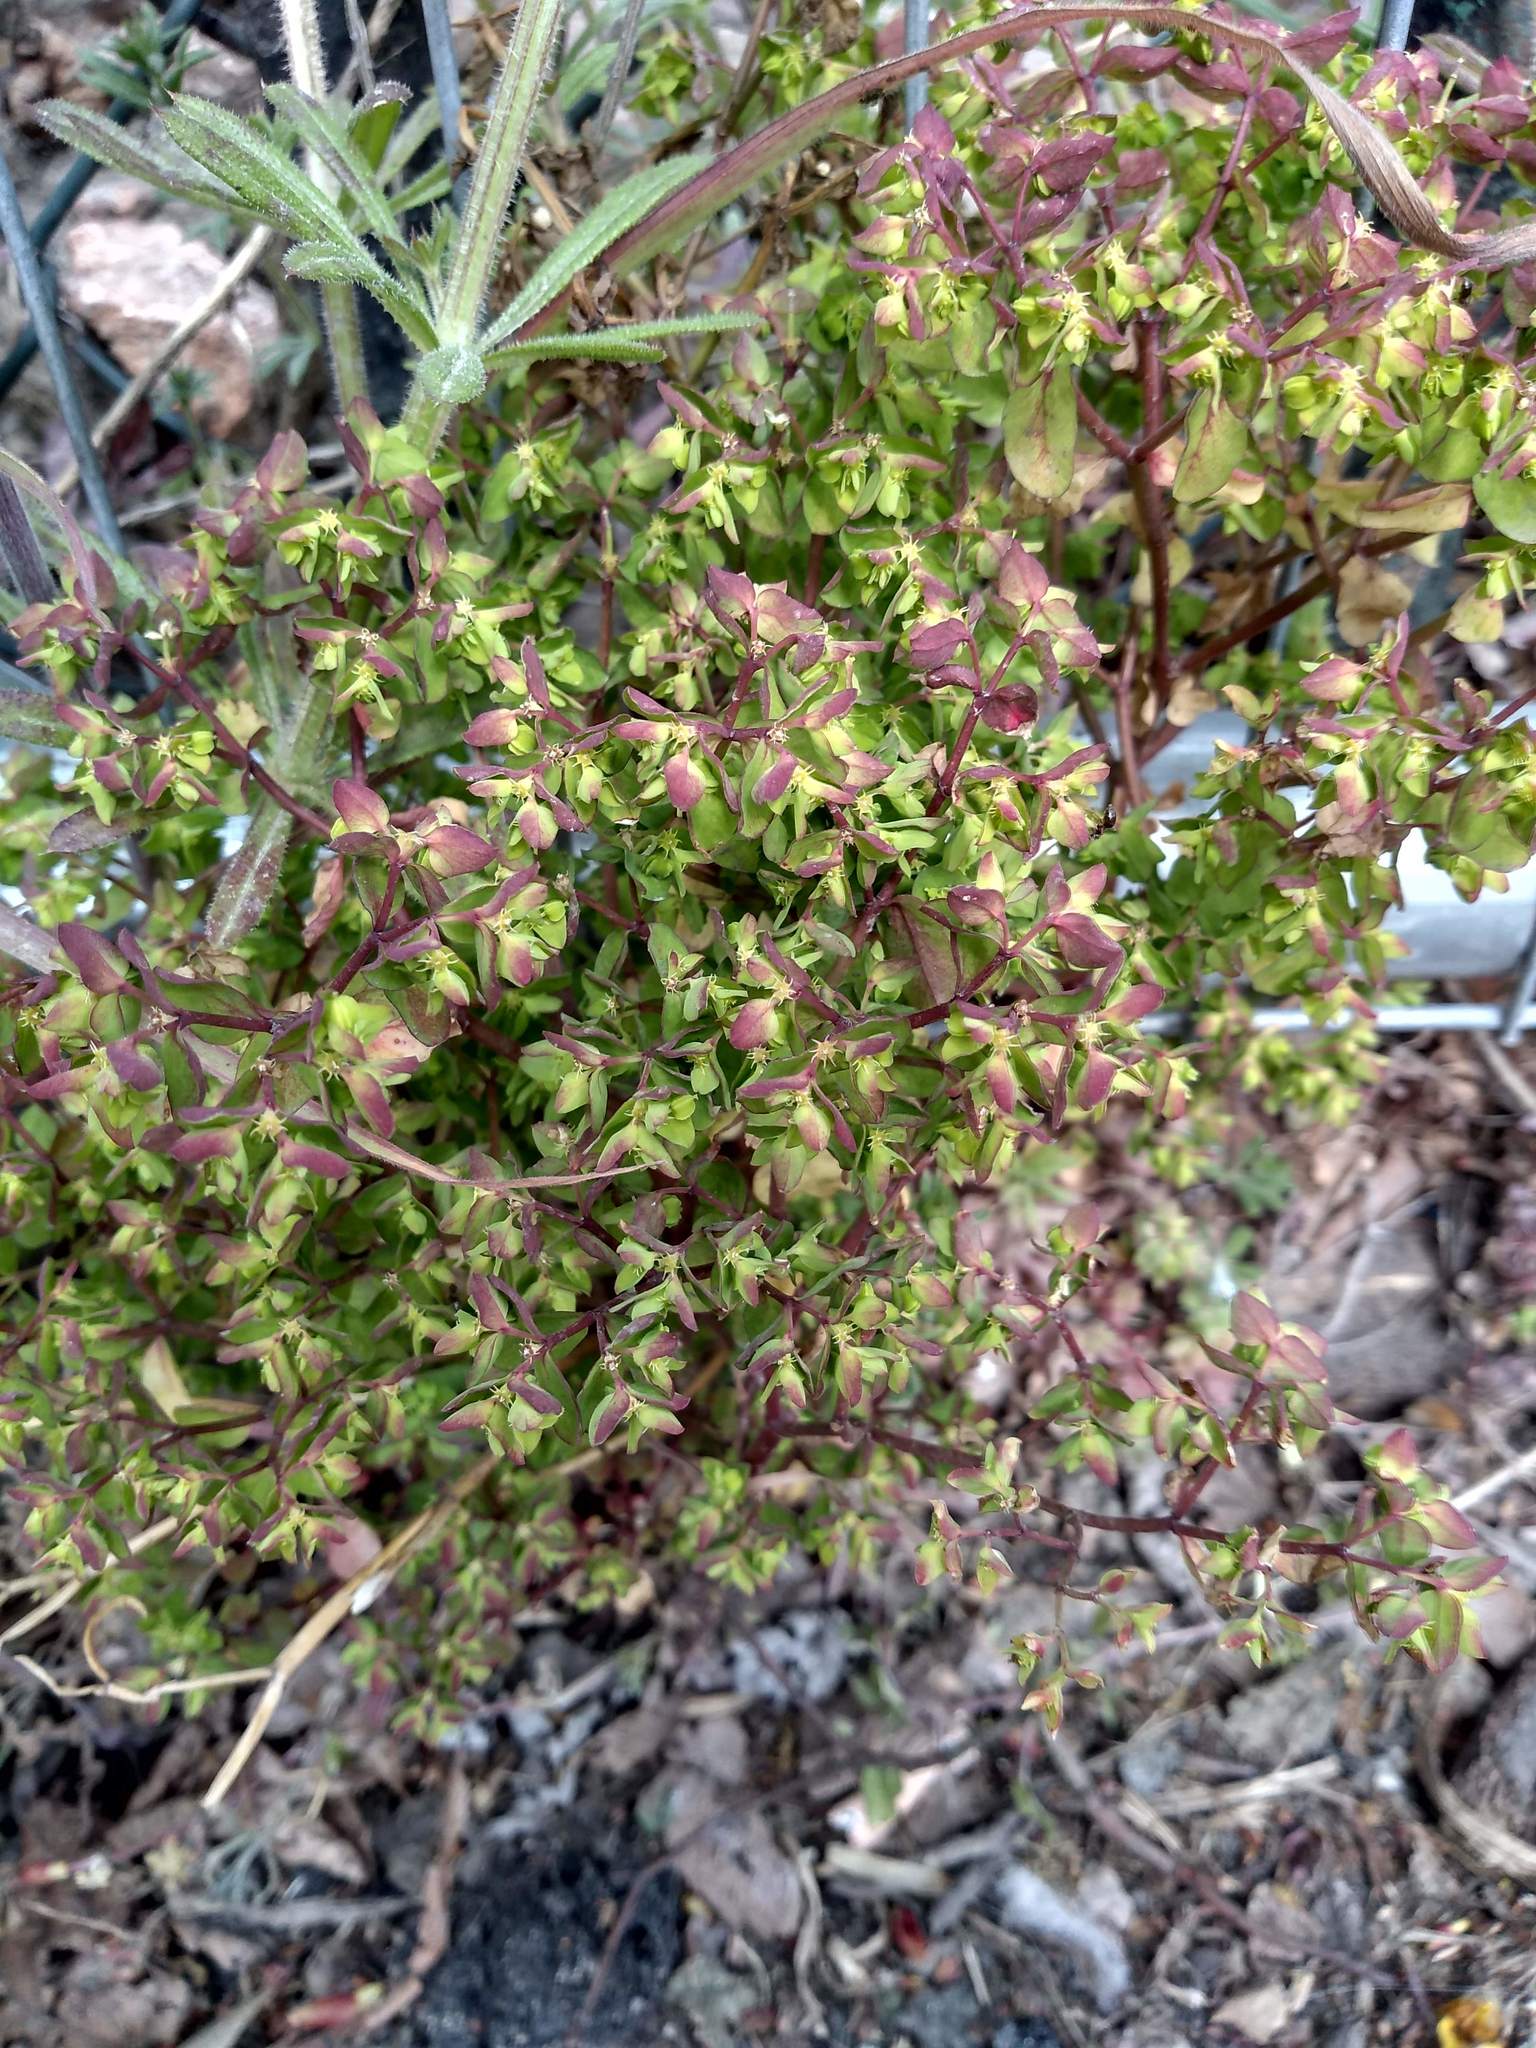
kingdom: Plantae
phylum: Tracheophyta
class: Magnoliopsida
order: Malpighiales
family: Euphorbiaceae
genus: Euphorbia
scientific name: Euphorbia peplus
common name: Petty spurge
